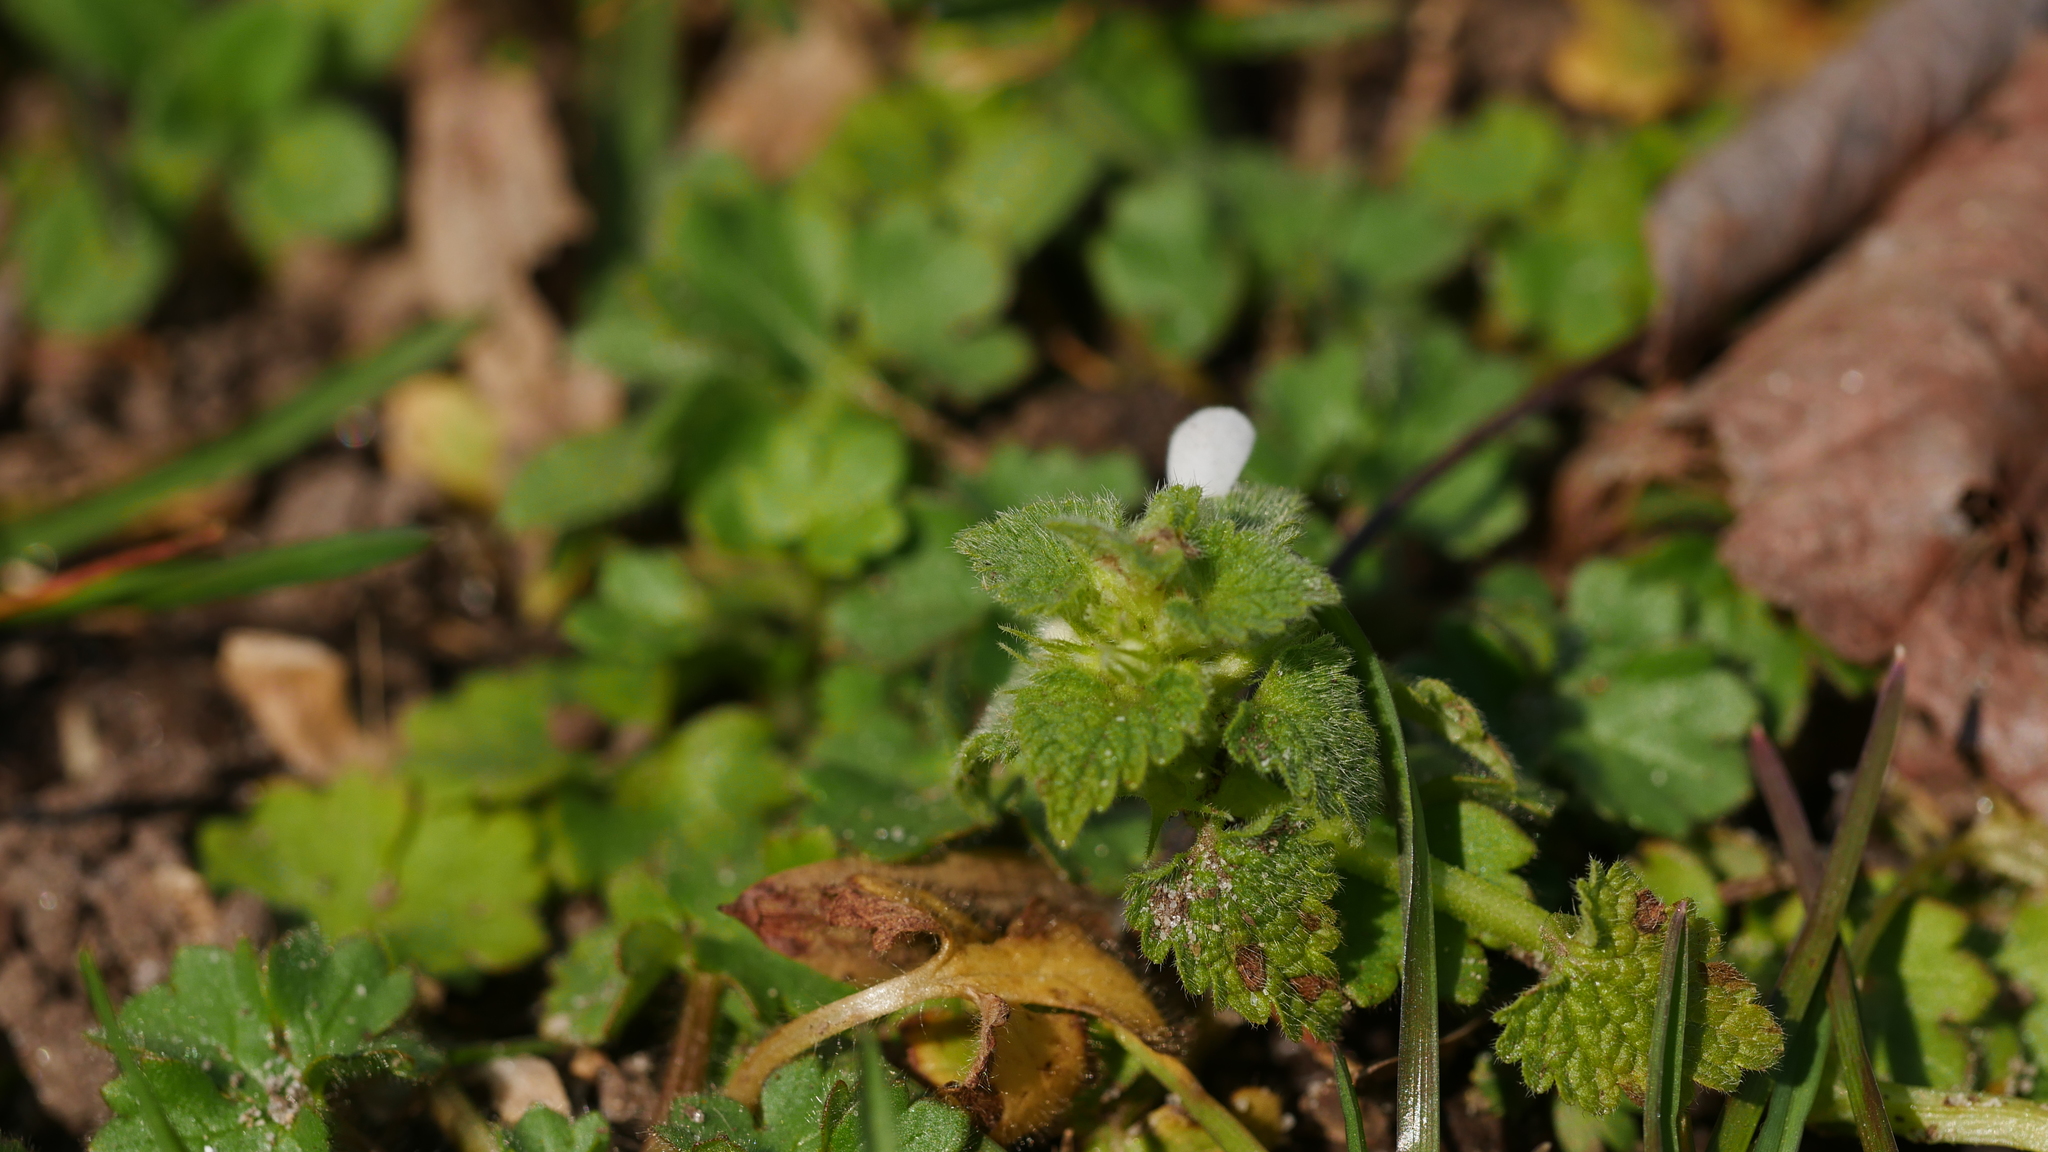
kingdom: Plantae
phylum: Tracheophyta
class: Magnoliopsida
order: Lamiales
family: Lamiaceae
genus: Lamium
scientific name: Lamium purpureum
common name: Red dead-nettle
